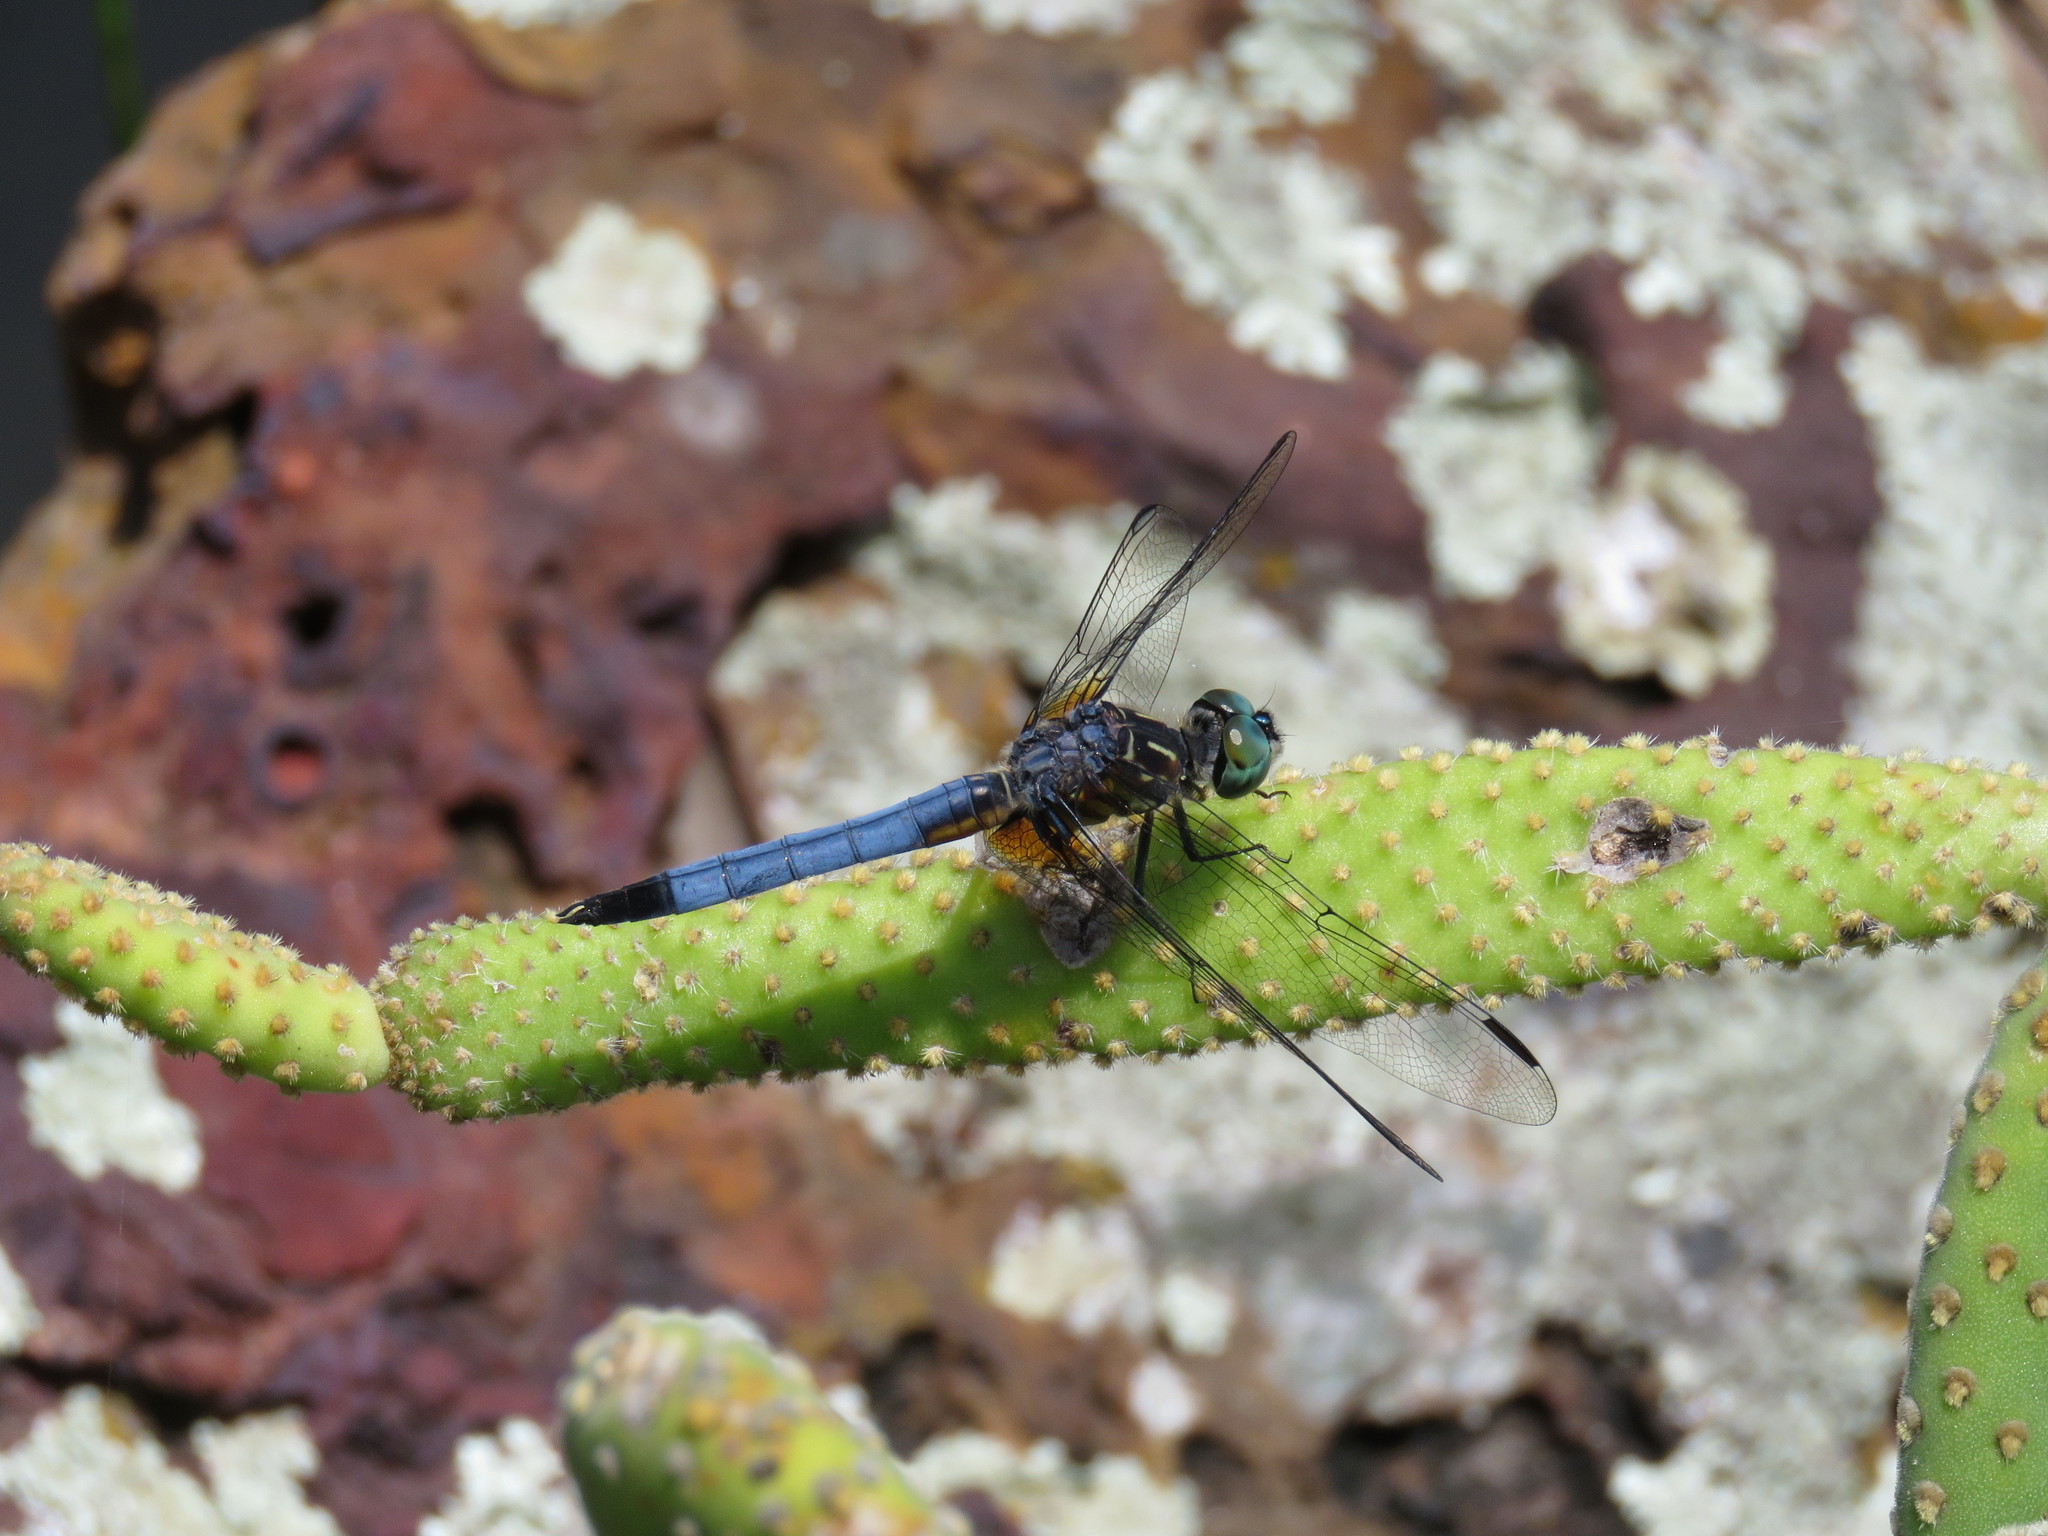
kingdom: Animalia
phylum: Arthropoda
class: Insecta
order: Odonata
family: Libellulidae
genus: Pachydiplax
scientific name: Pachydiplax longipennis
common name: Blue dasher
